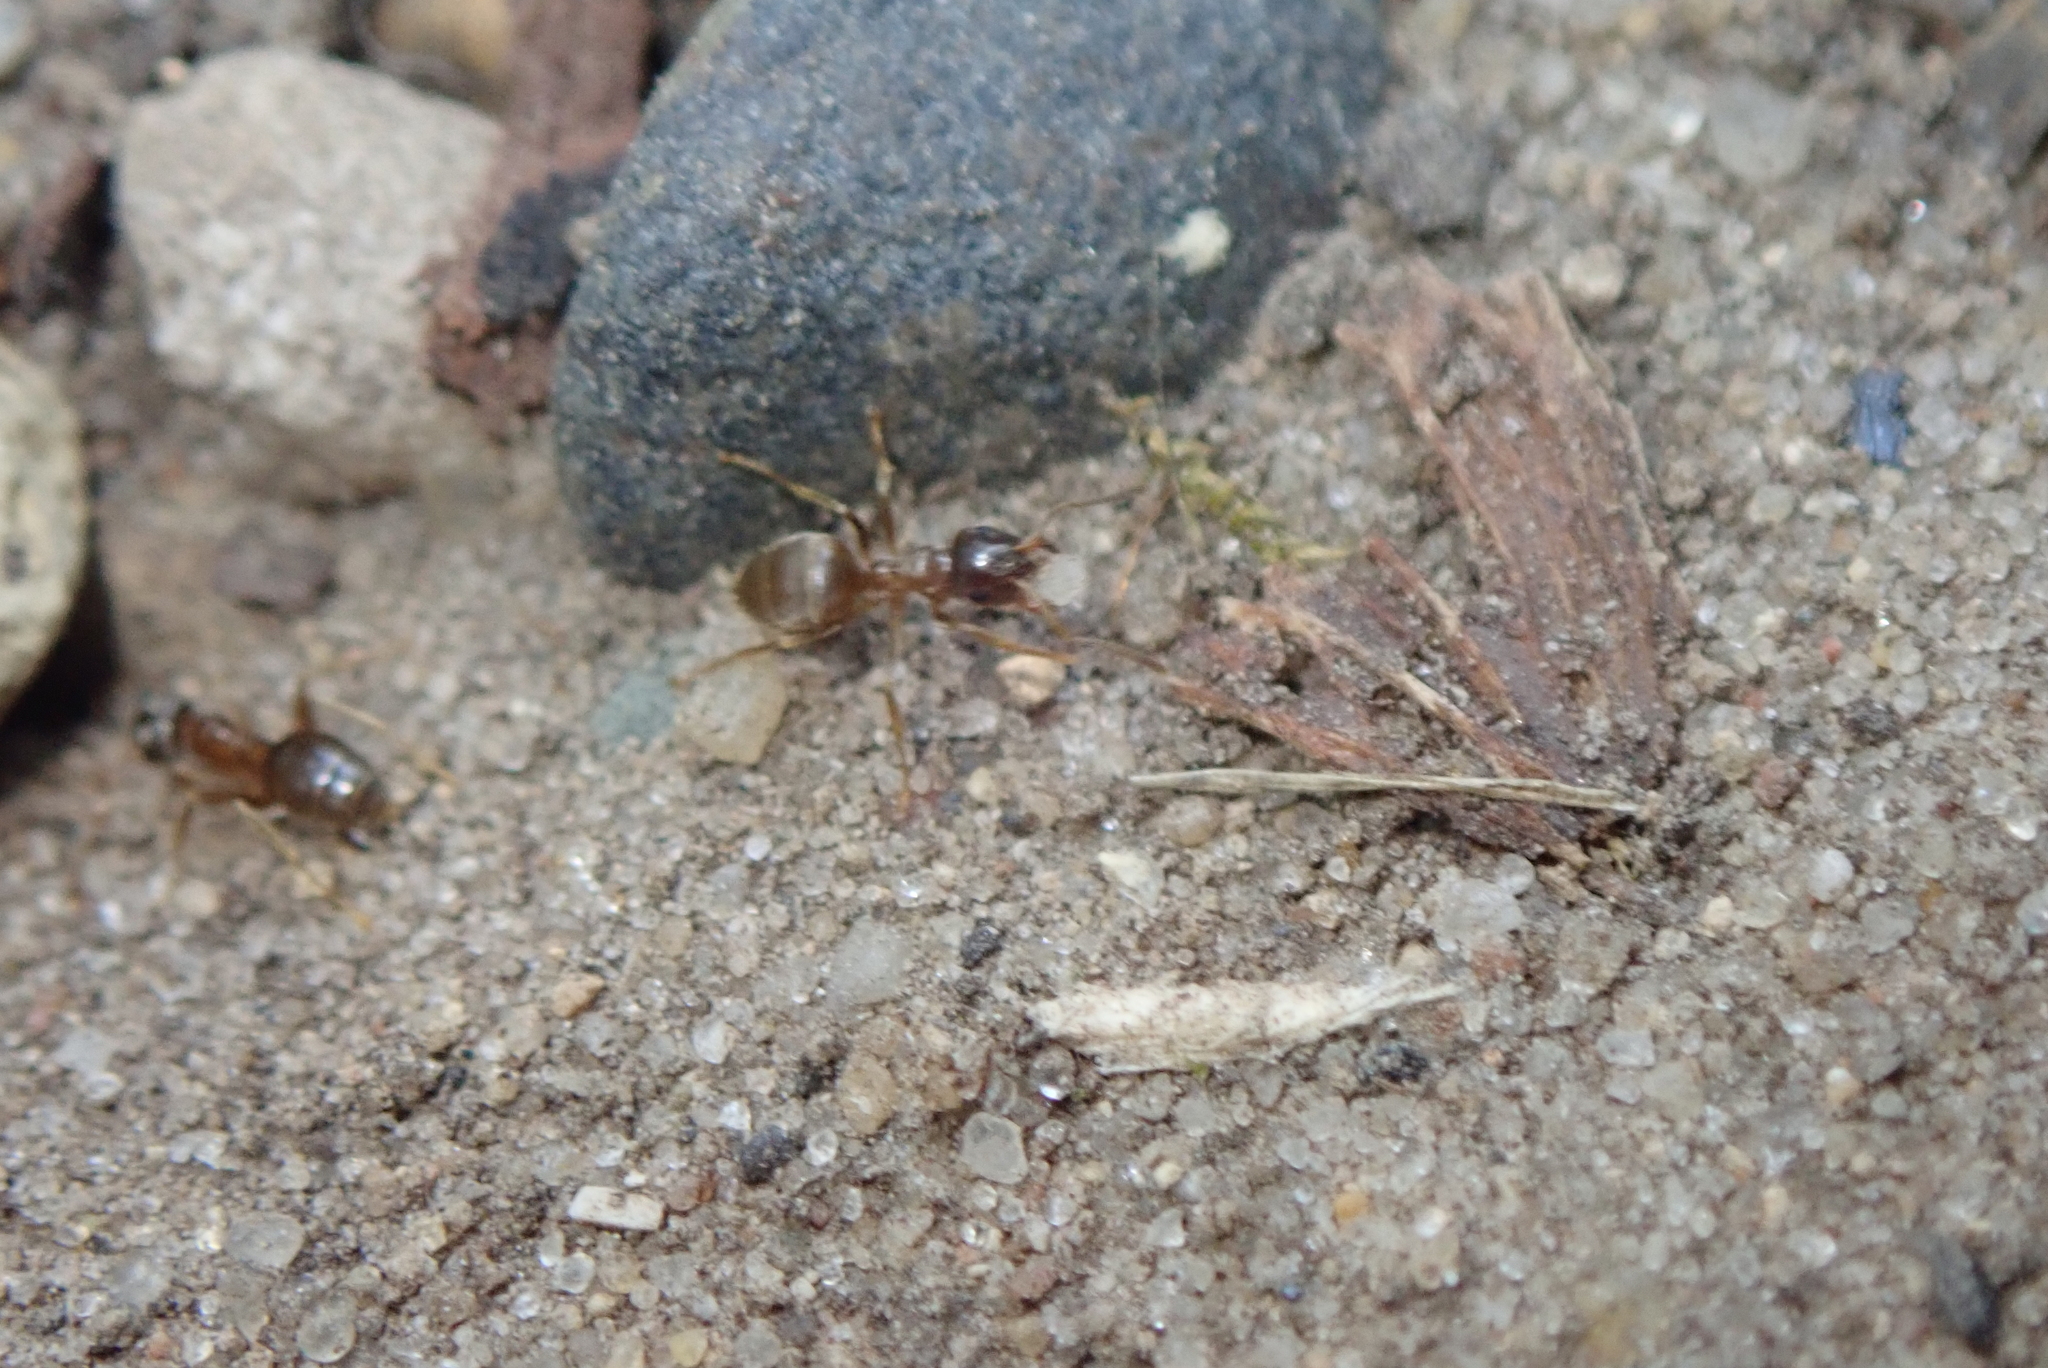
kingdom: Animalia
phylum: Arthropoda
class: Insecta
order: Hymenoptera
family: Formicidae
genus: Lasius
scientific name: Lasius neoniger
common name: Turfgrass ant
